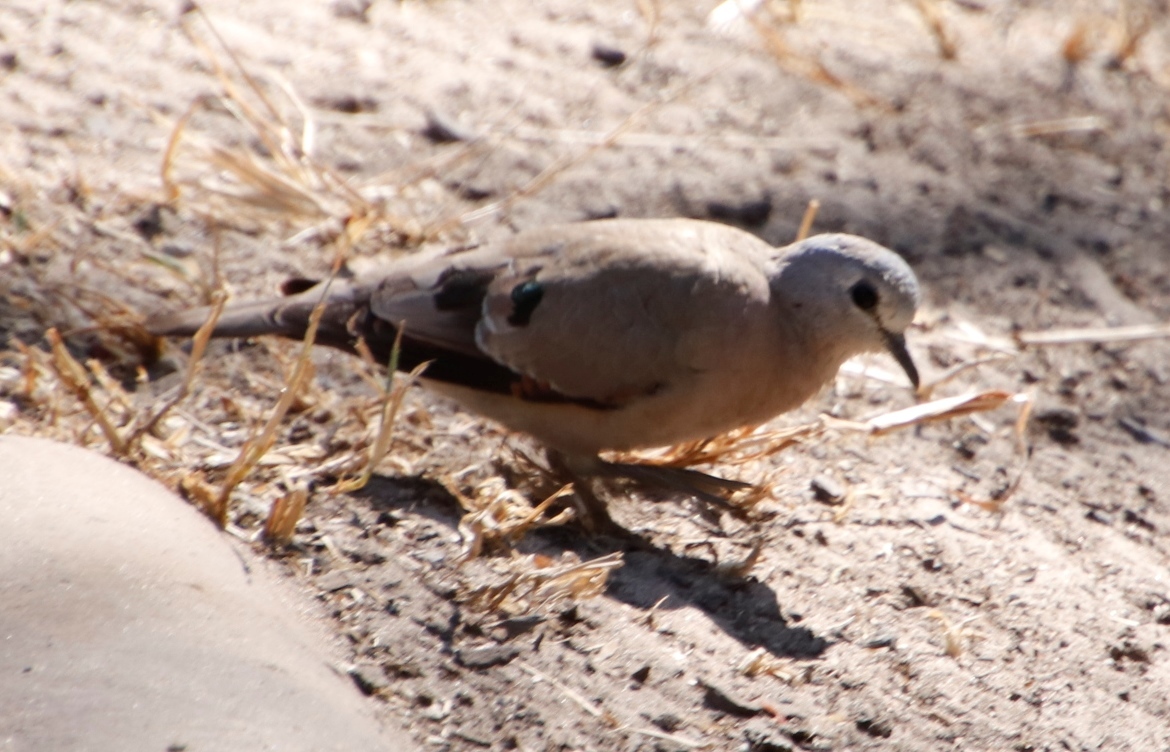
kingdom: Animalia
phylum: Chordata
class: Aves
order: Columbiformes
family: Columbidae
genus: Turtur
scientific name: Turtur chalcospilos
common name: Emerald-spotted wood dove
